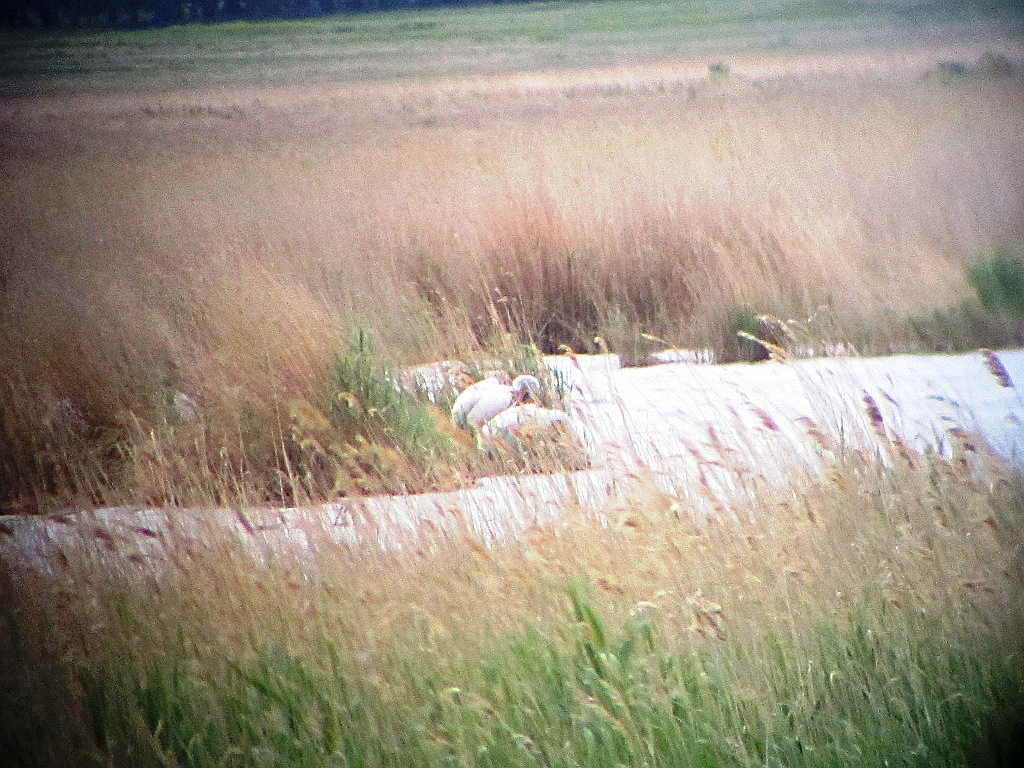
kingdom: Animalia
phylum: Chordata
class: Aves
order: Pelecaniformes
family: Pelecanidae
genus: Pelecanus
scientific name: Pelecanus crispus
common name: Dalmatian pelican
